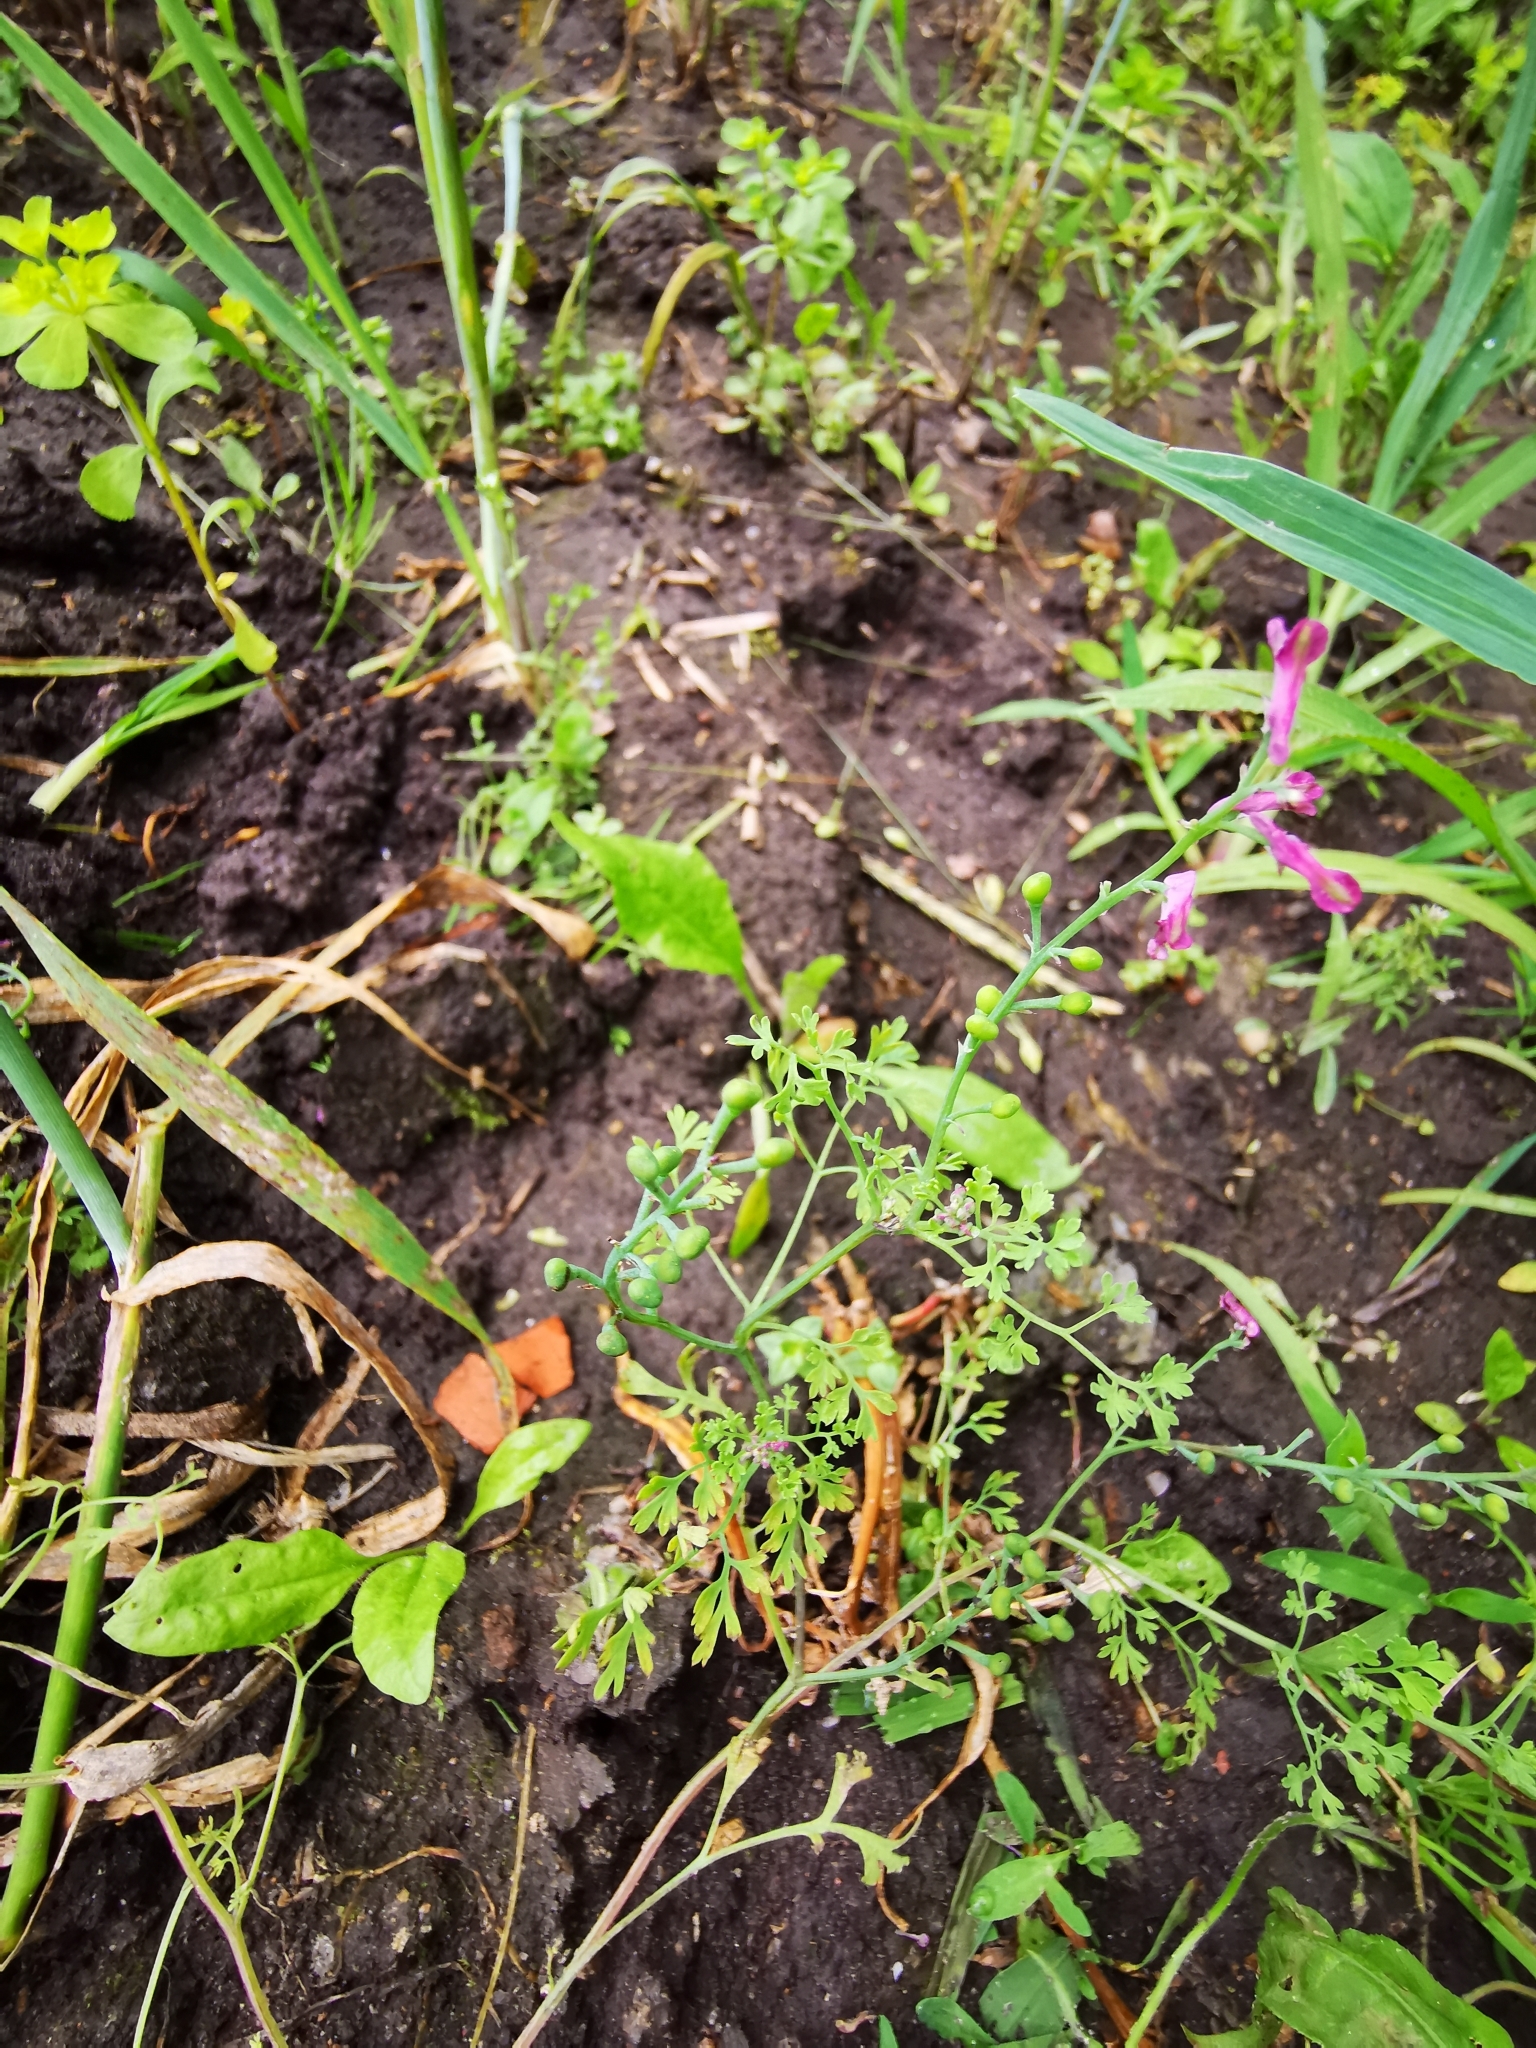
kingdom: Plantae
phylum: Tracheophyta
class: Magnoliopsida
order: Ranunculales
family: Papaveraceae
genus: Fumaria
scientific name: Fumaria officinalis
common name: Common fumitory
